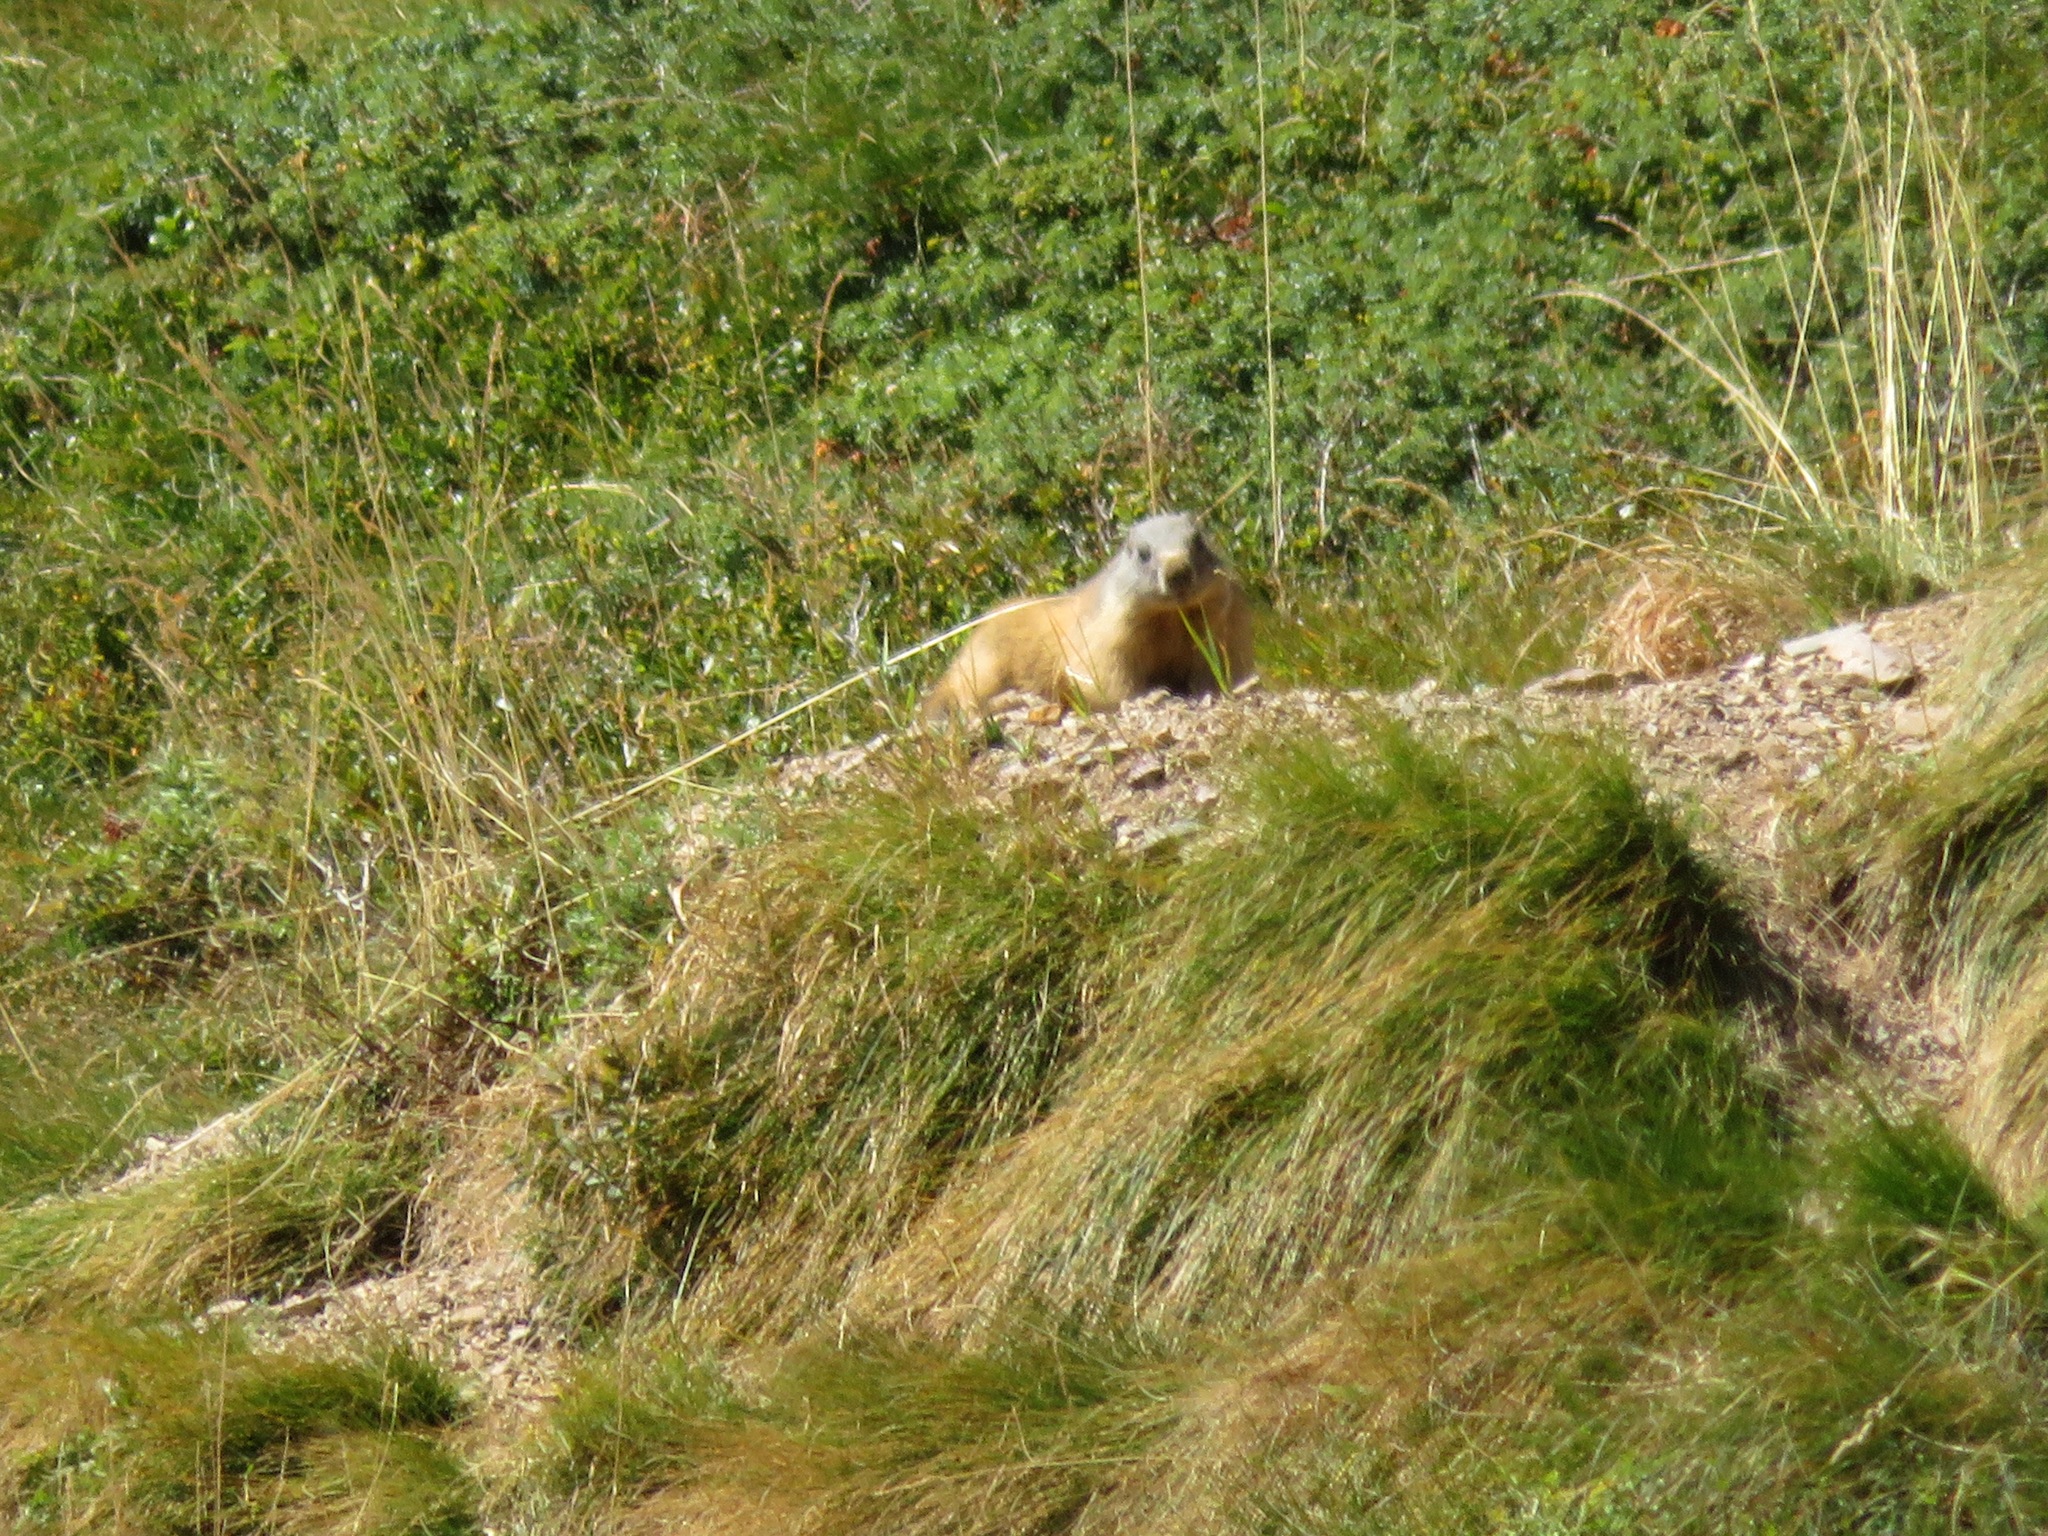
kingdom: Animalia
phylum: Chordata
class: Mammalia
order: Rodentia
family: Sciuridae
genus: Marmota
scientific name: Marmota marmota
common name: Alpine marmot
